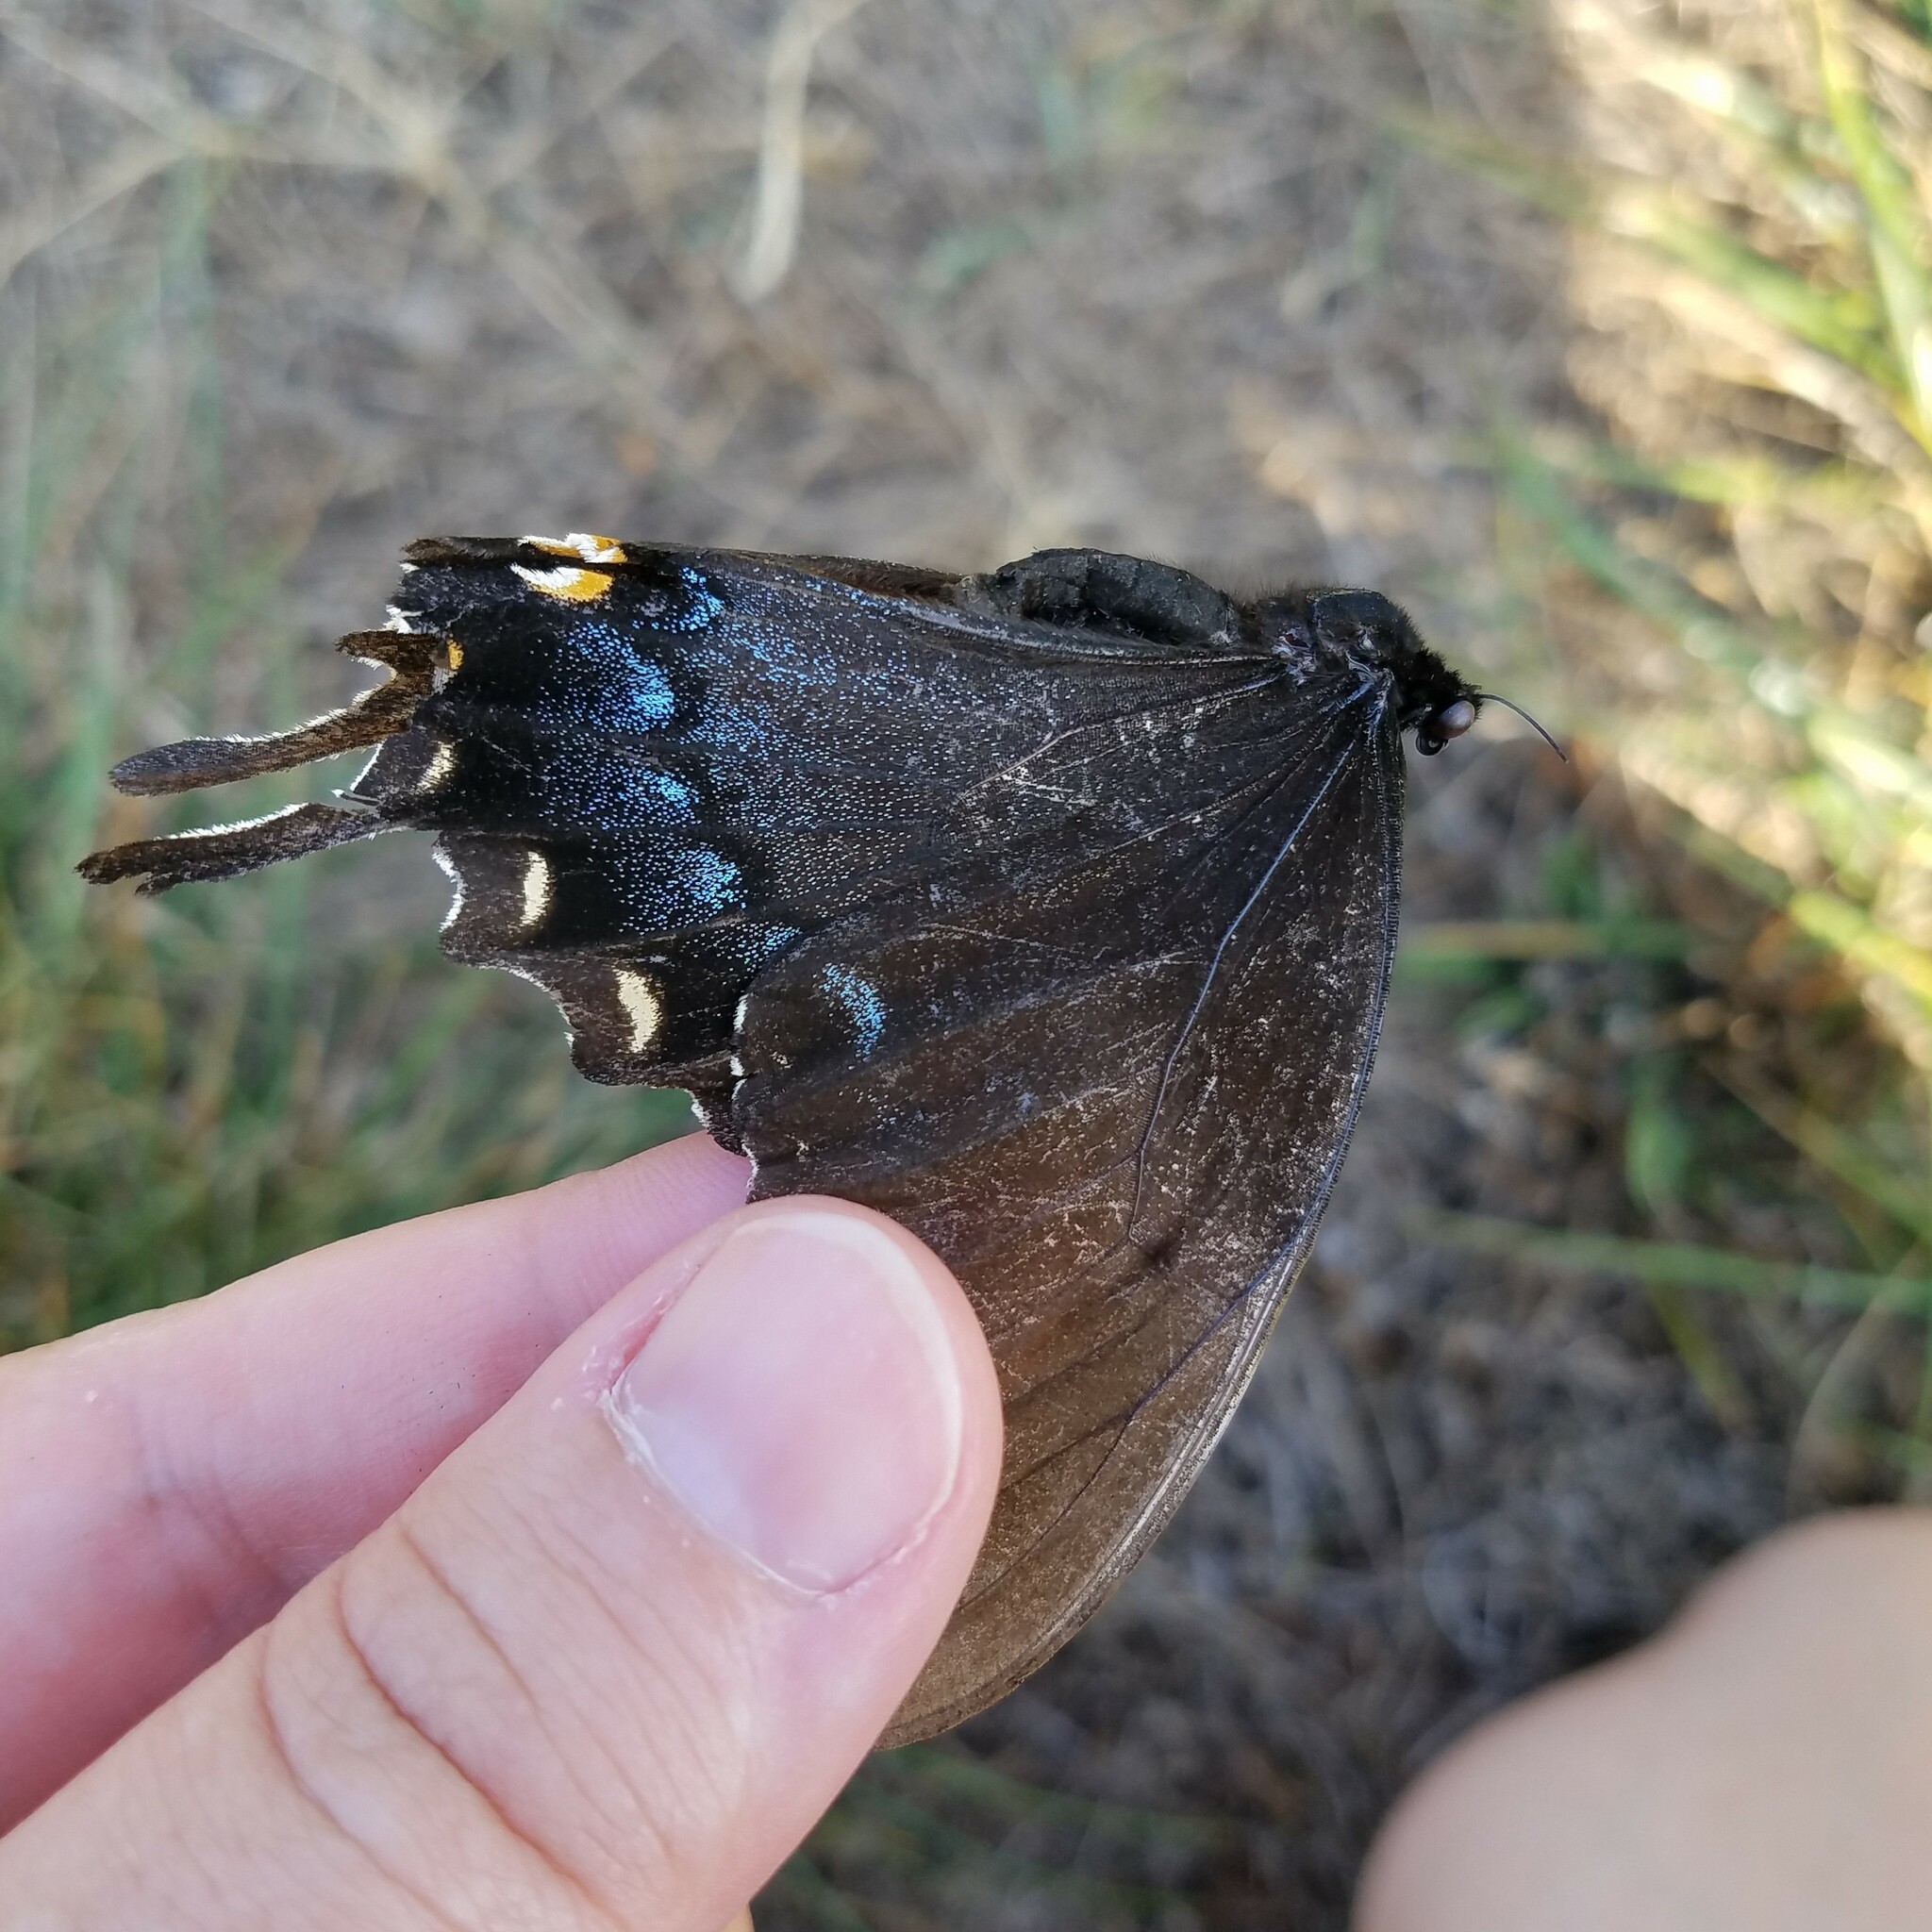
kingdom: Animalia
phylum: Arthropoda
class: Insecta
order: Lepidoptera
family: Papilionidae
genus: Papilio
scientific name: Papilio glaucus
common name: Tiger swallowtail
